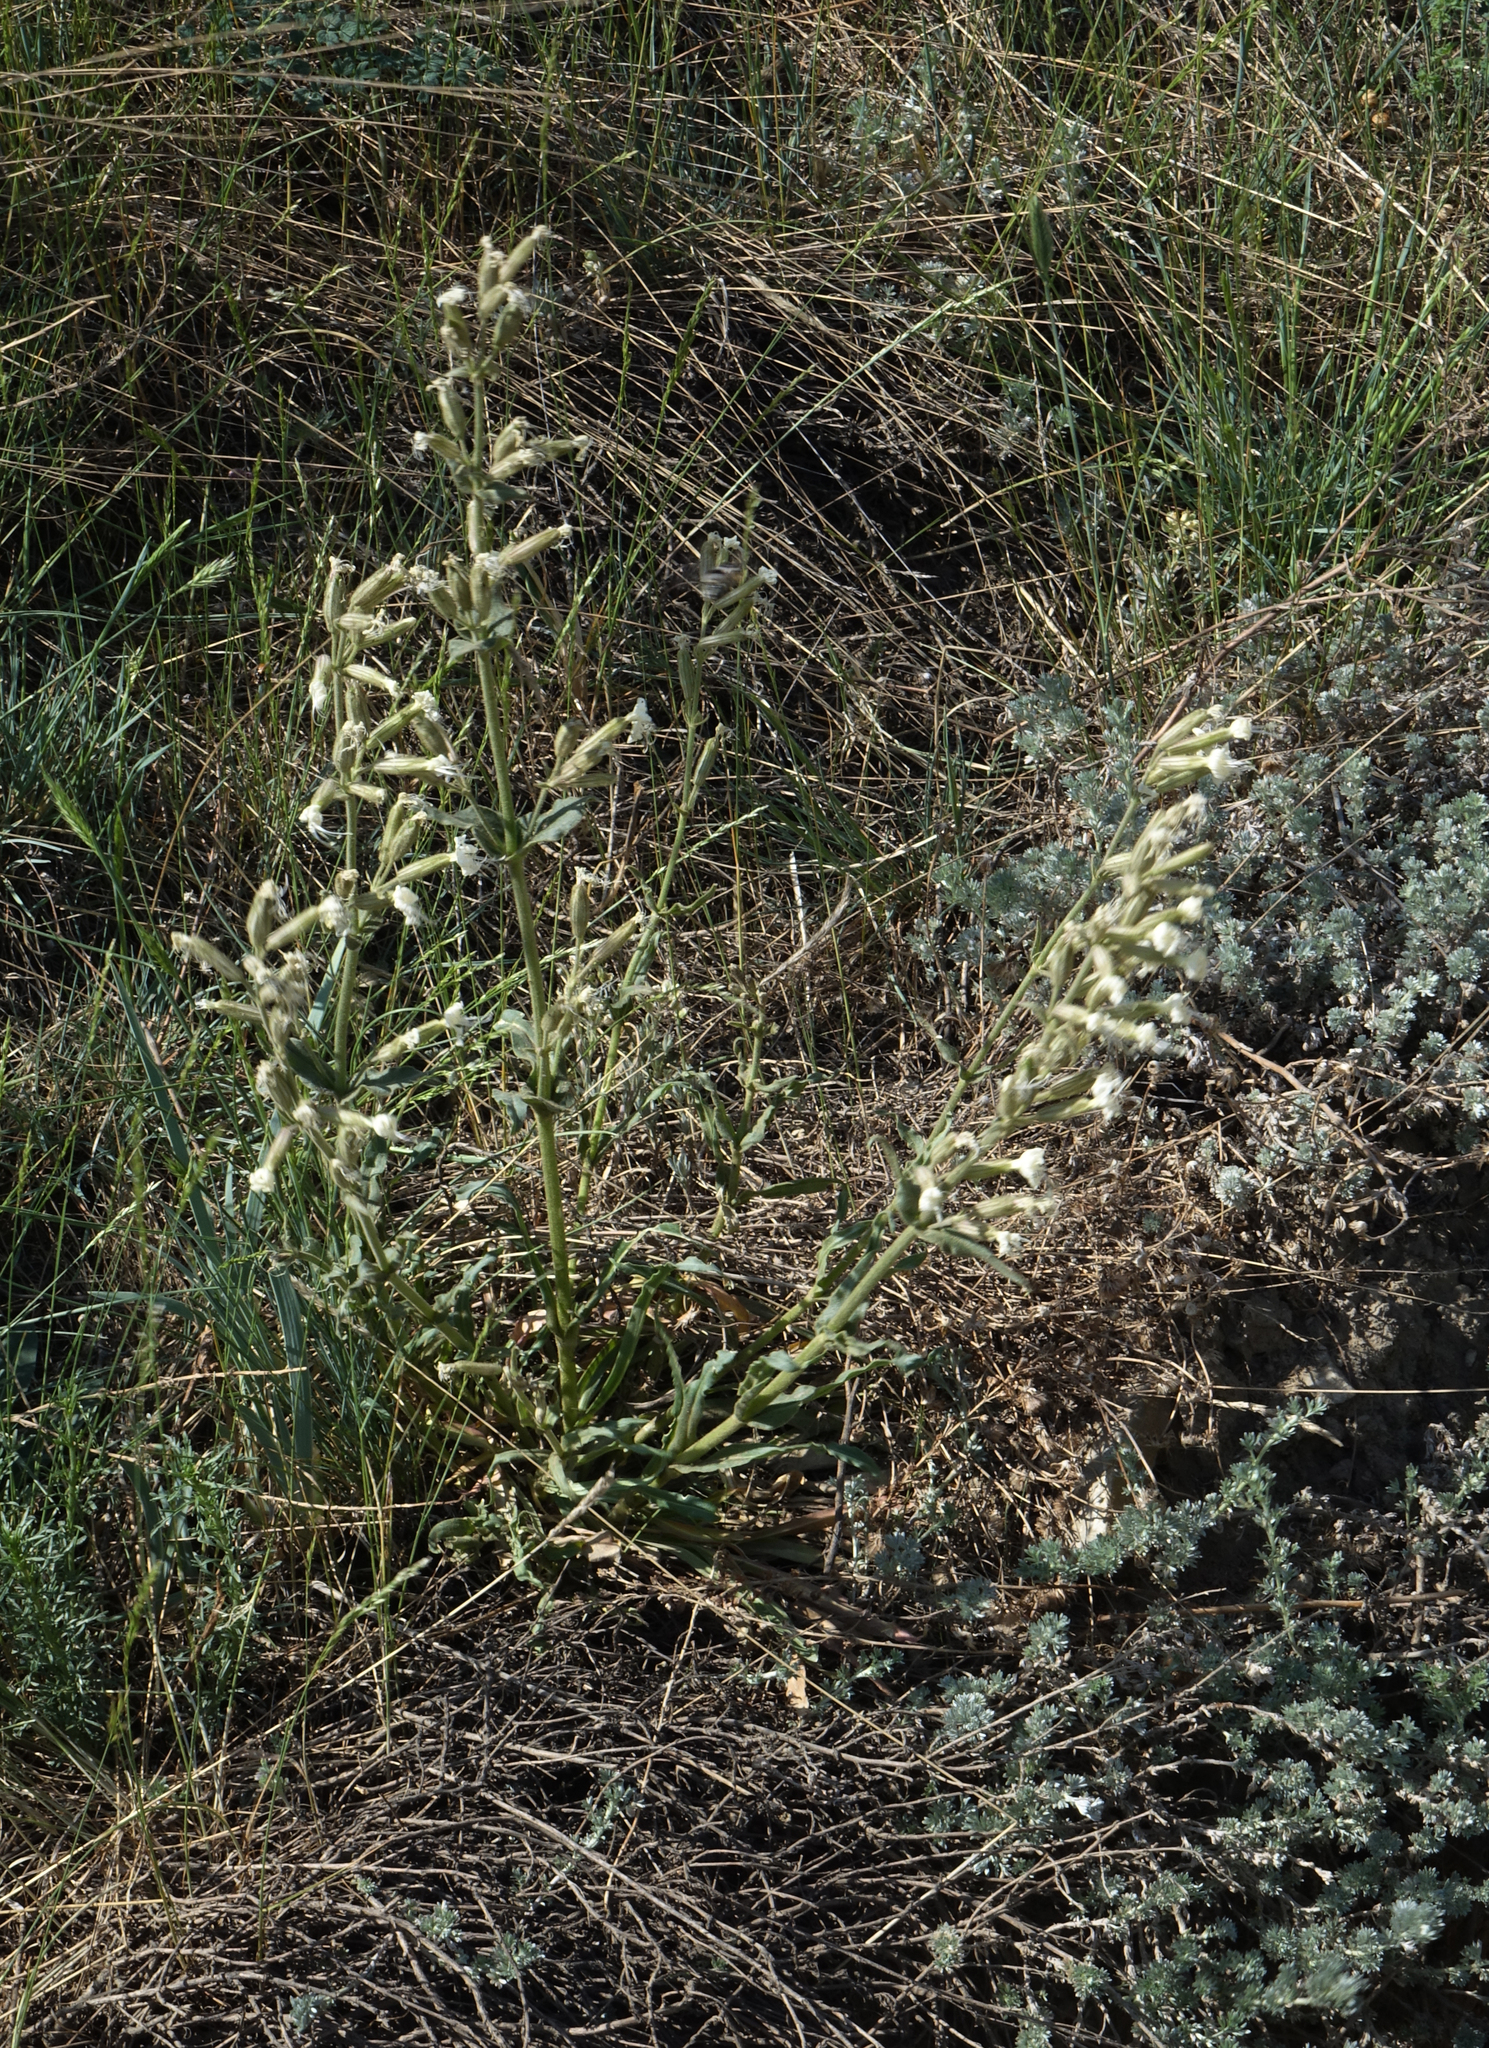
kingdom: Plantae
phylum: Tracheophyta
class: Magnoliopsida
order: Caryophyllales
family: Caryophyllaceae
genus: Silene
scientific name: Silene viscosa
